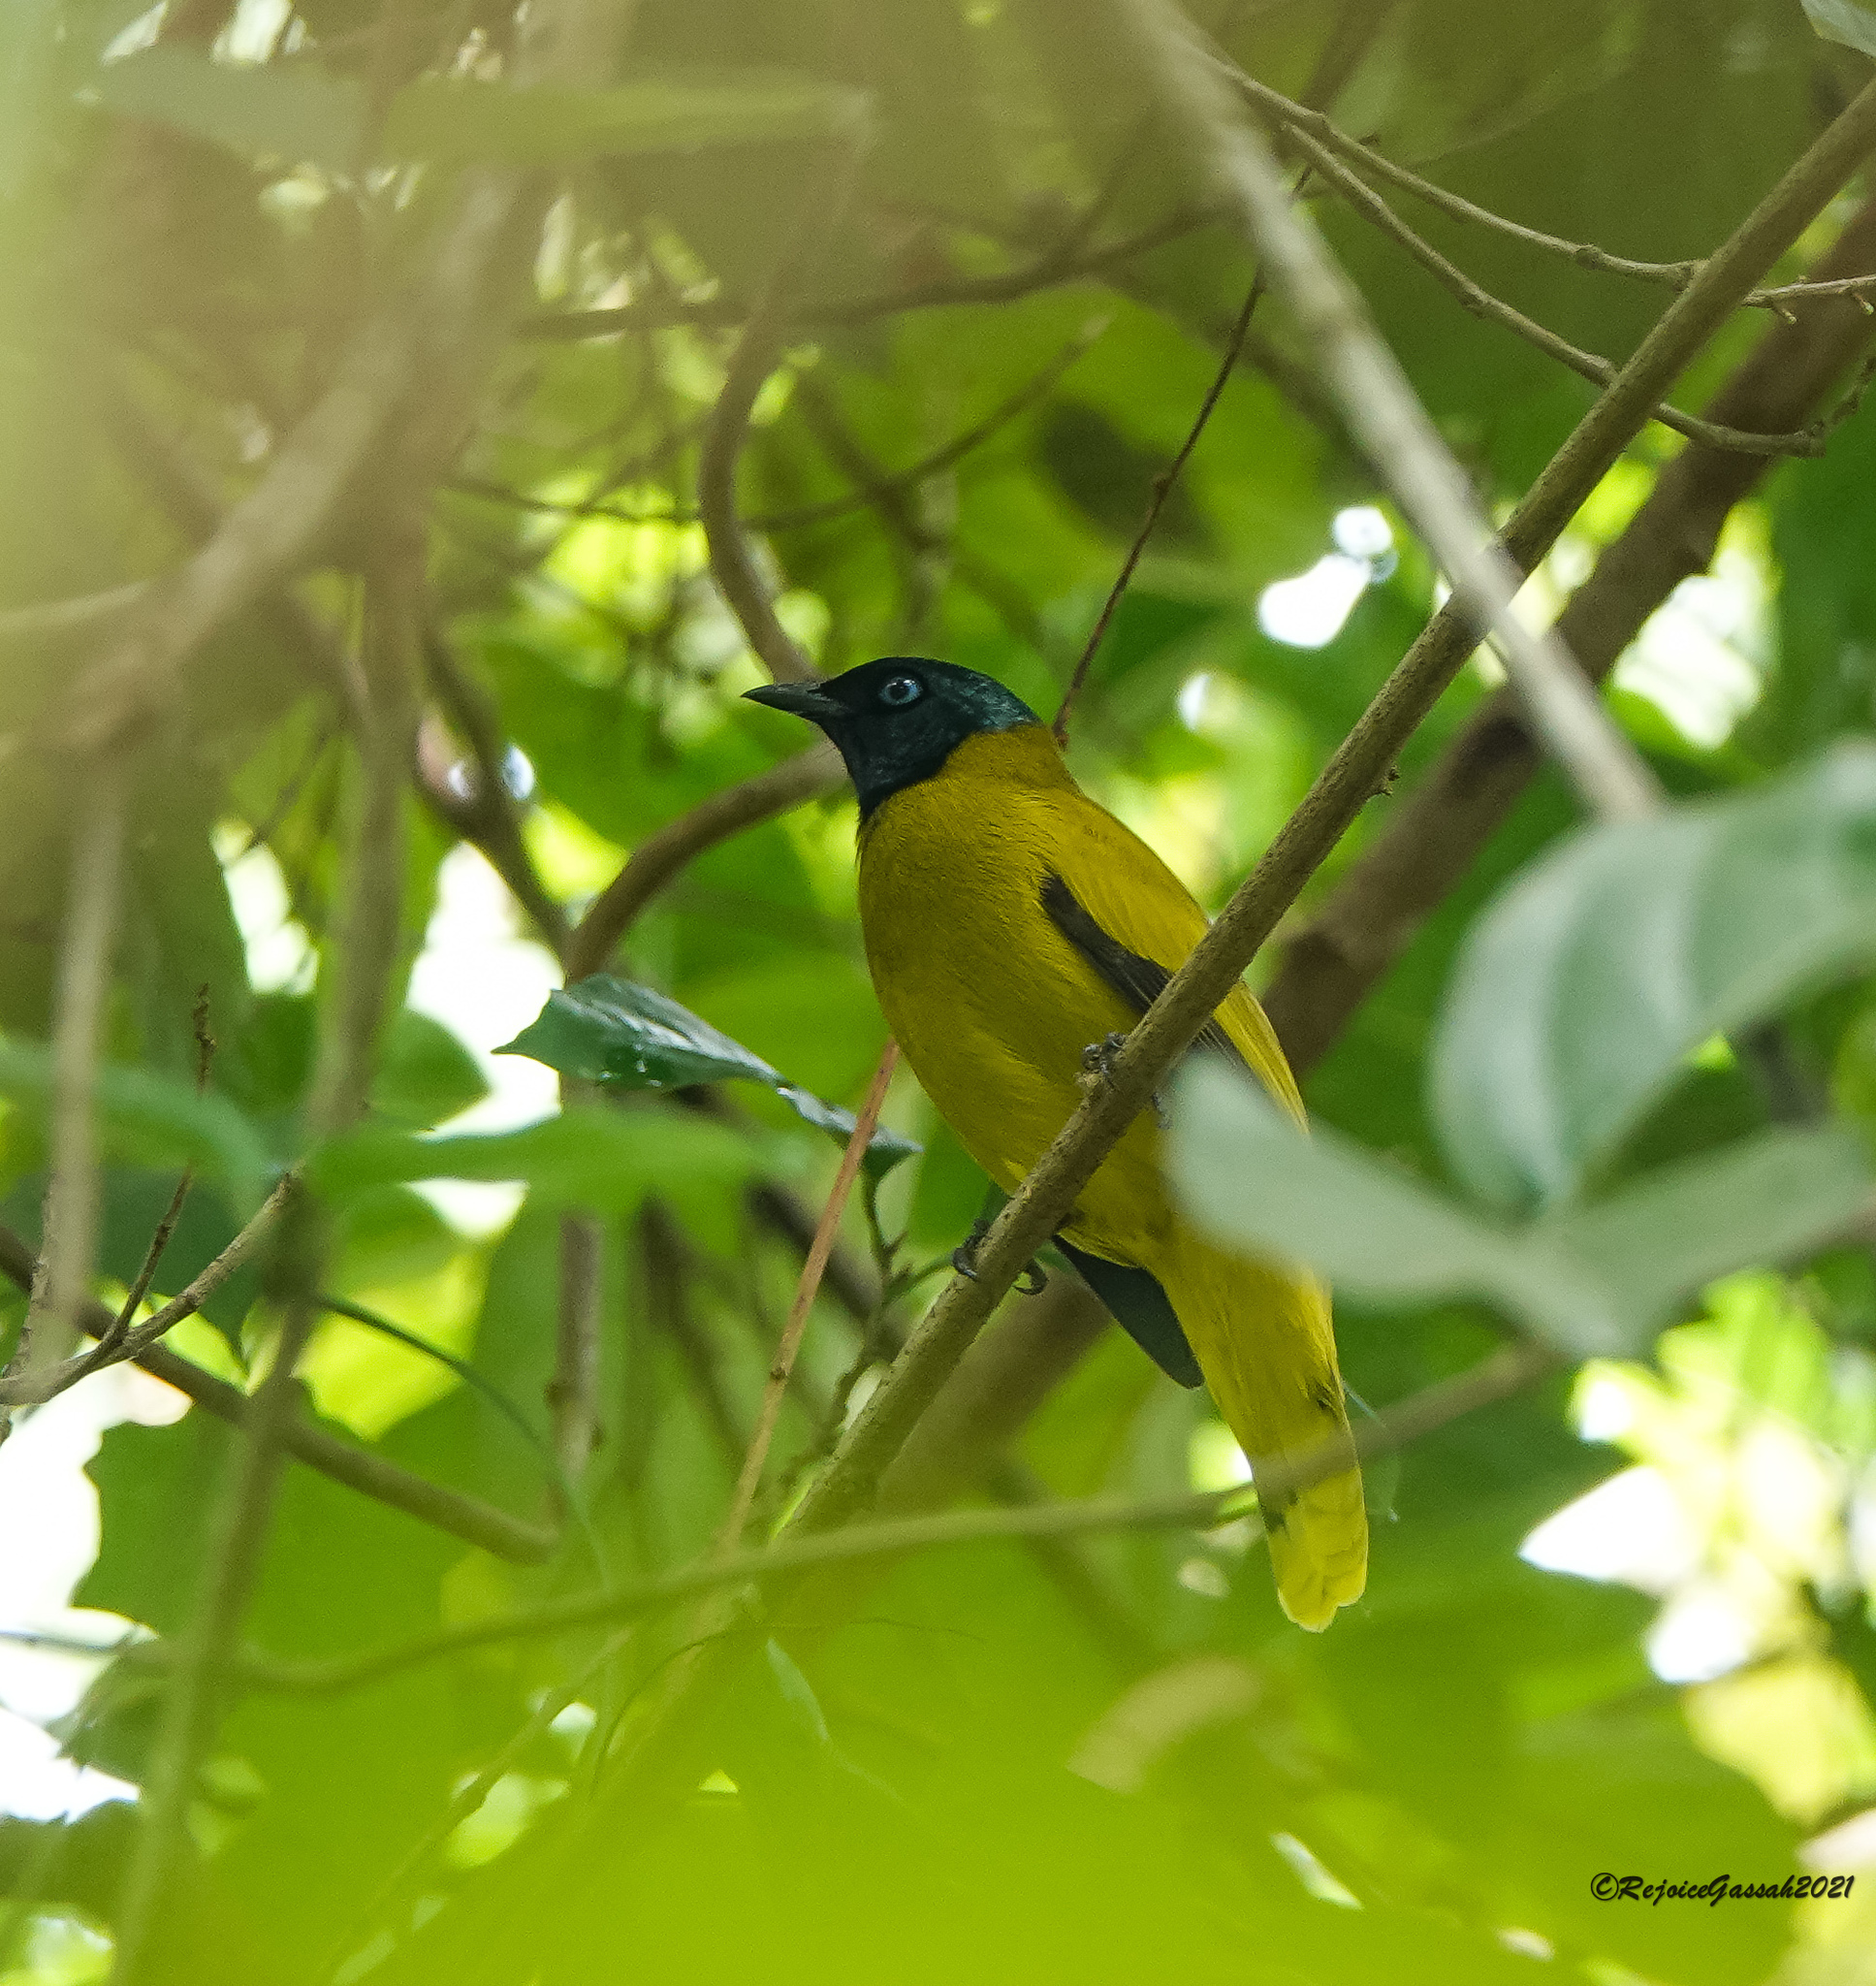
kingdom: Animalia
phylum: Chordata
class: Aves
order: Passeriformes
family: Pycnonotidae
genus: Microtarsus
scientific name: Microtarsus
